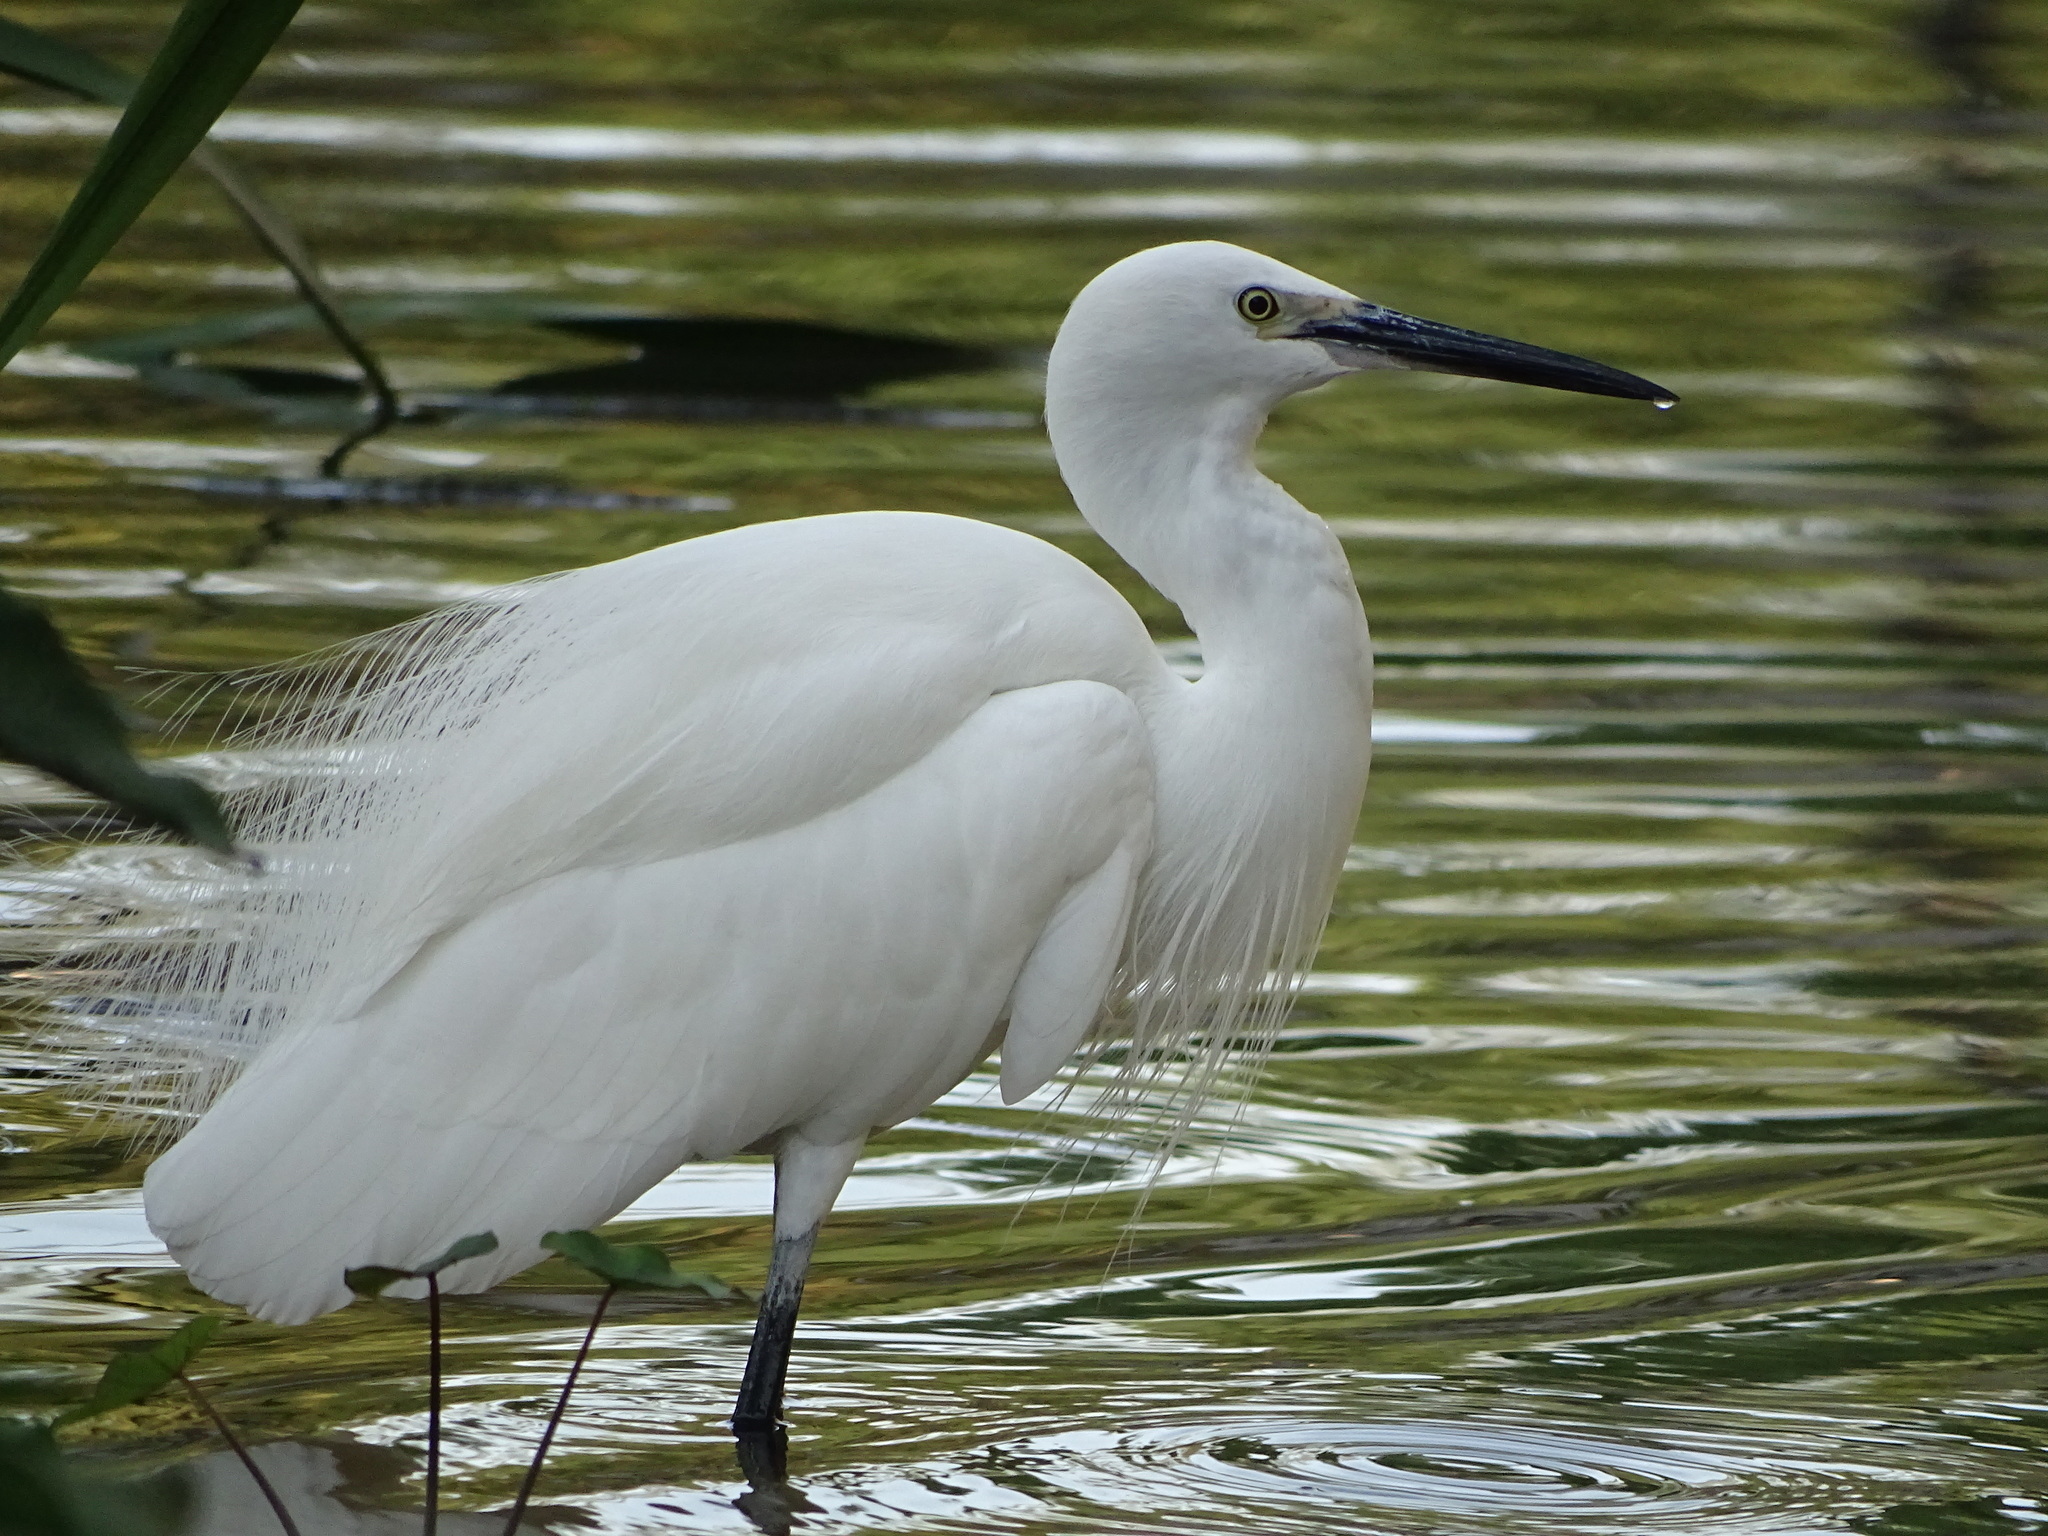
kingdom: Animalia
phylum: Chordata
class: Aves
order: Pelecaniformes
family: Ardeidae
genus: Egretta
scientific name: Egretta garzetta
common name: Little egret
